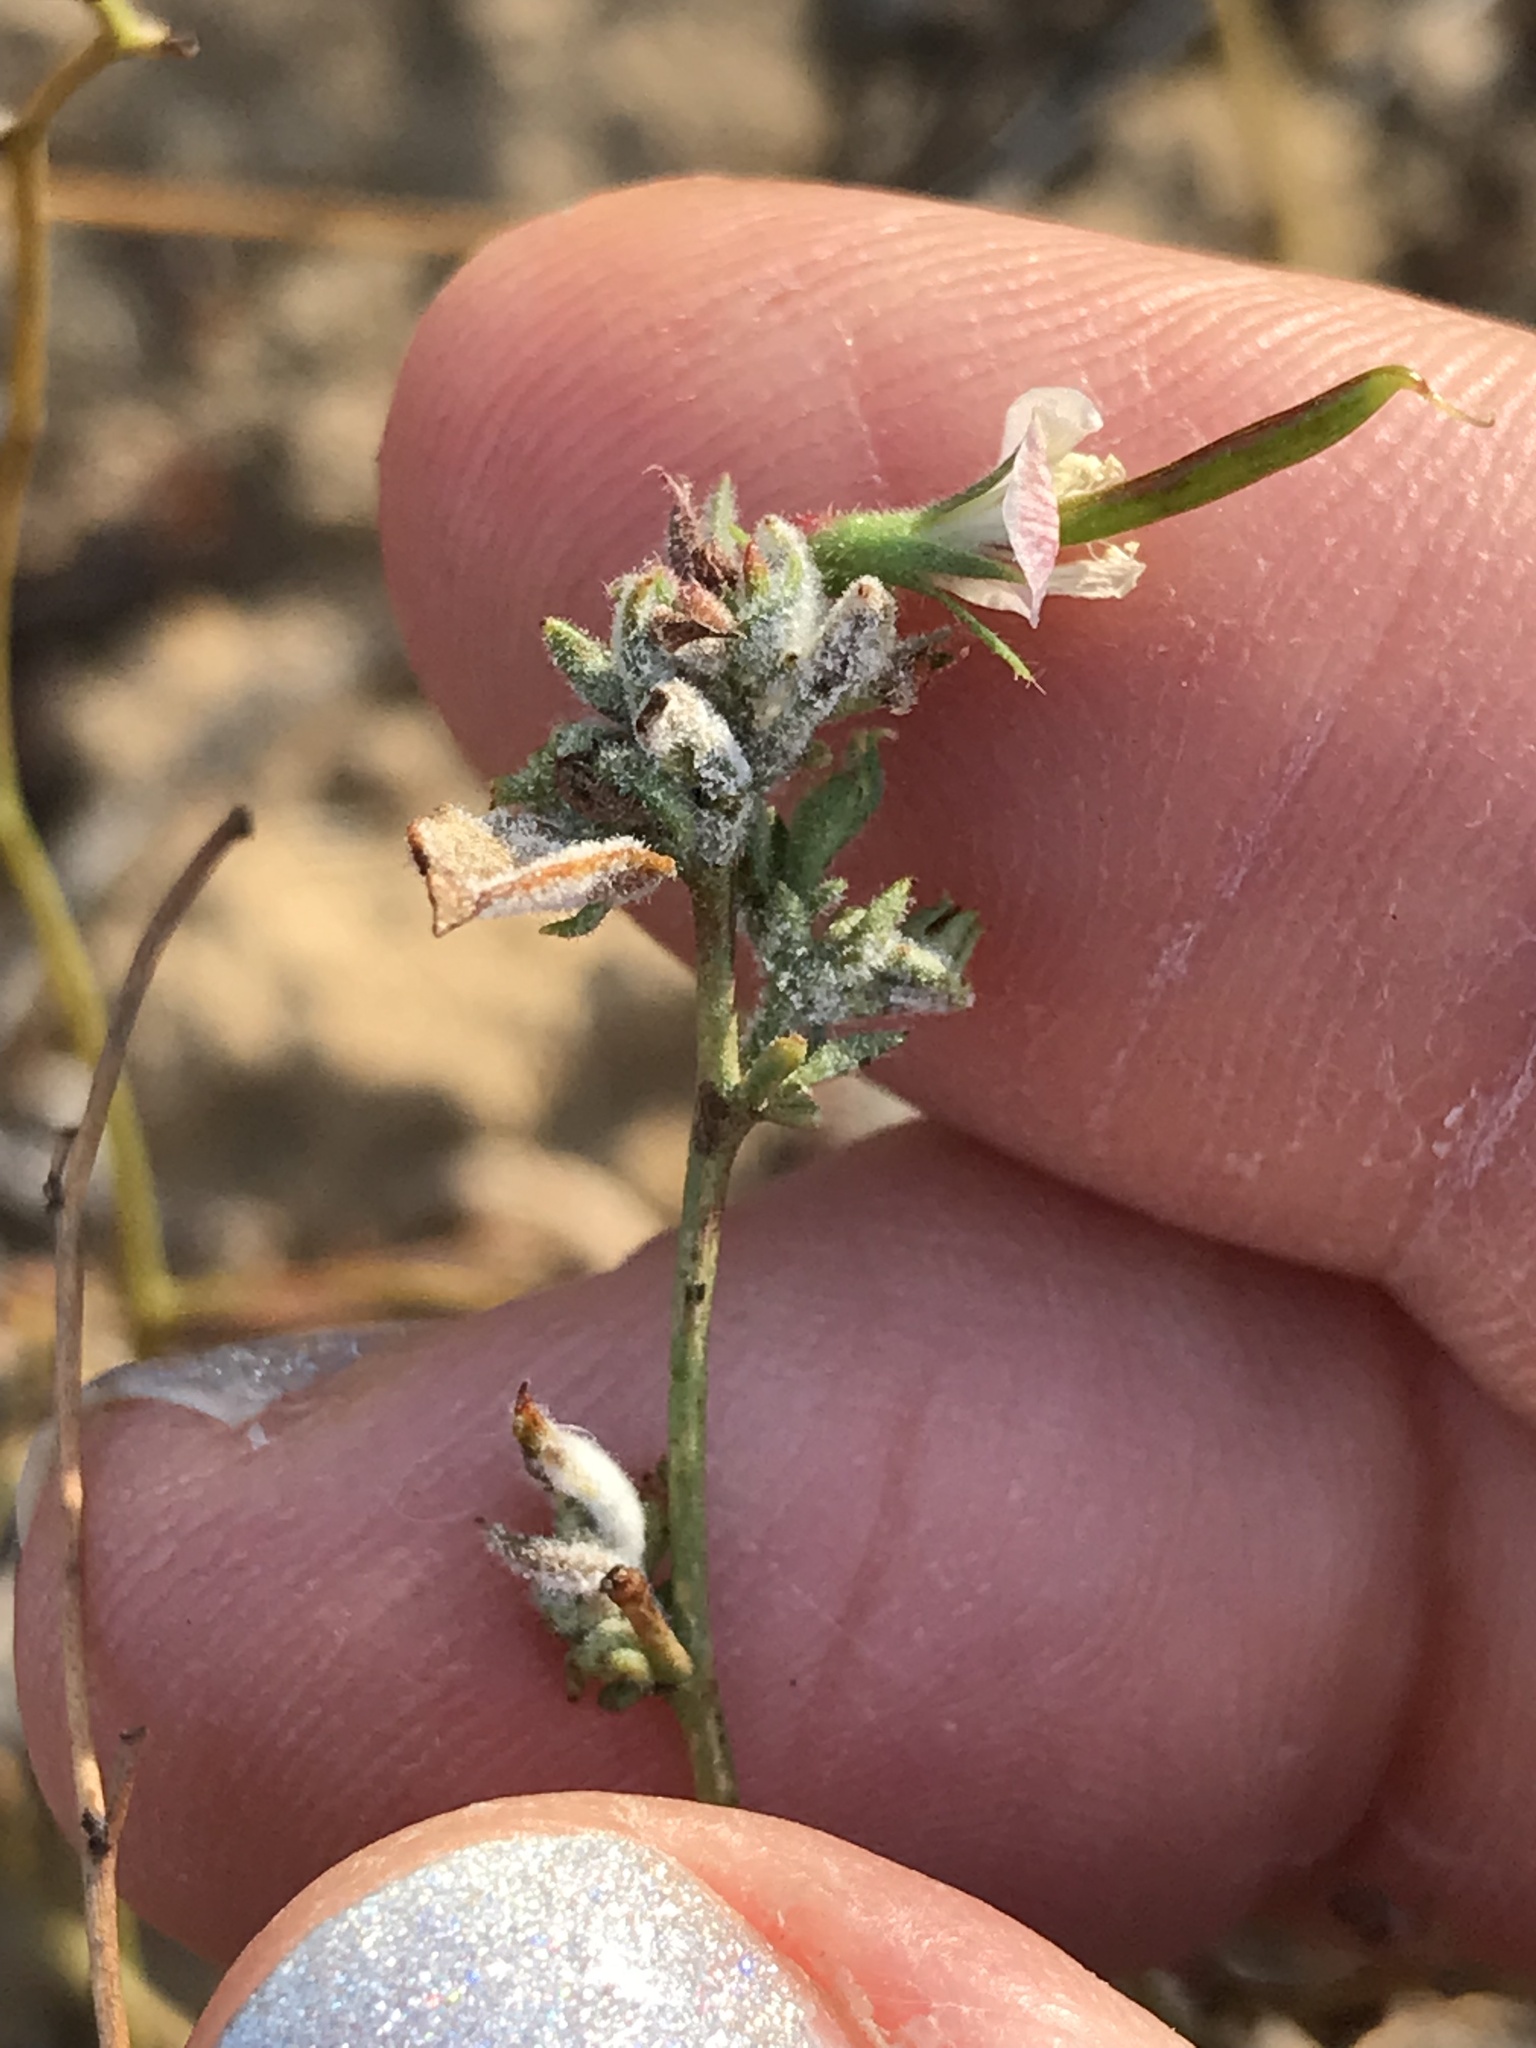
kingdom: Plantae
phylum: Tracheophyta
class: Magnoliopsida
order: Fabales
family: Fabaceae
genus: Acmispon
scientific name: Acmispon americanus
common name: American bird's-foot trefoil
